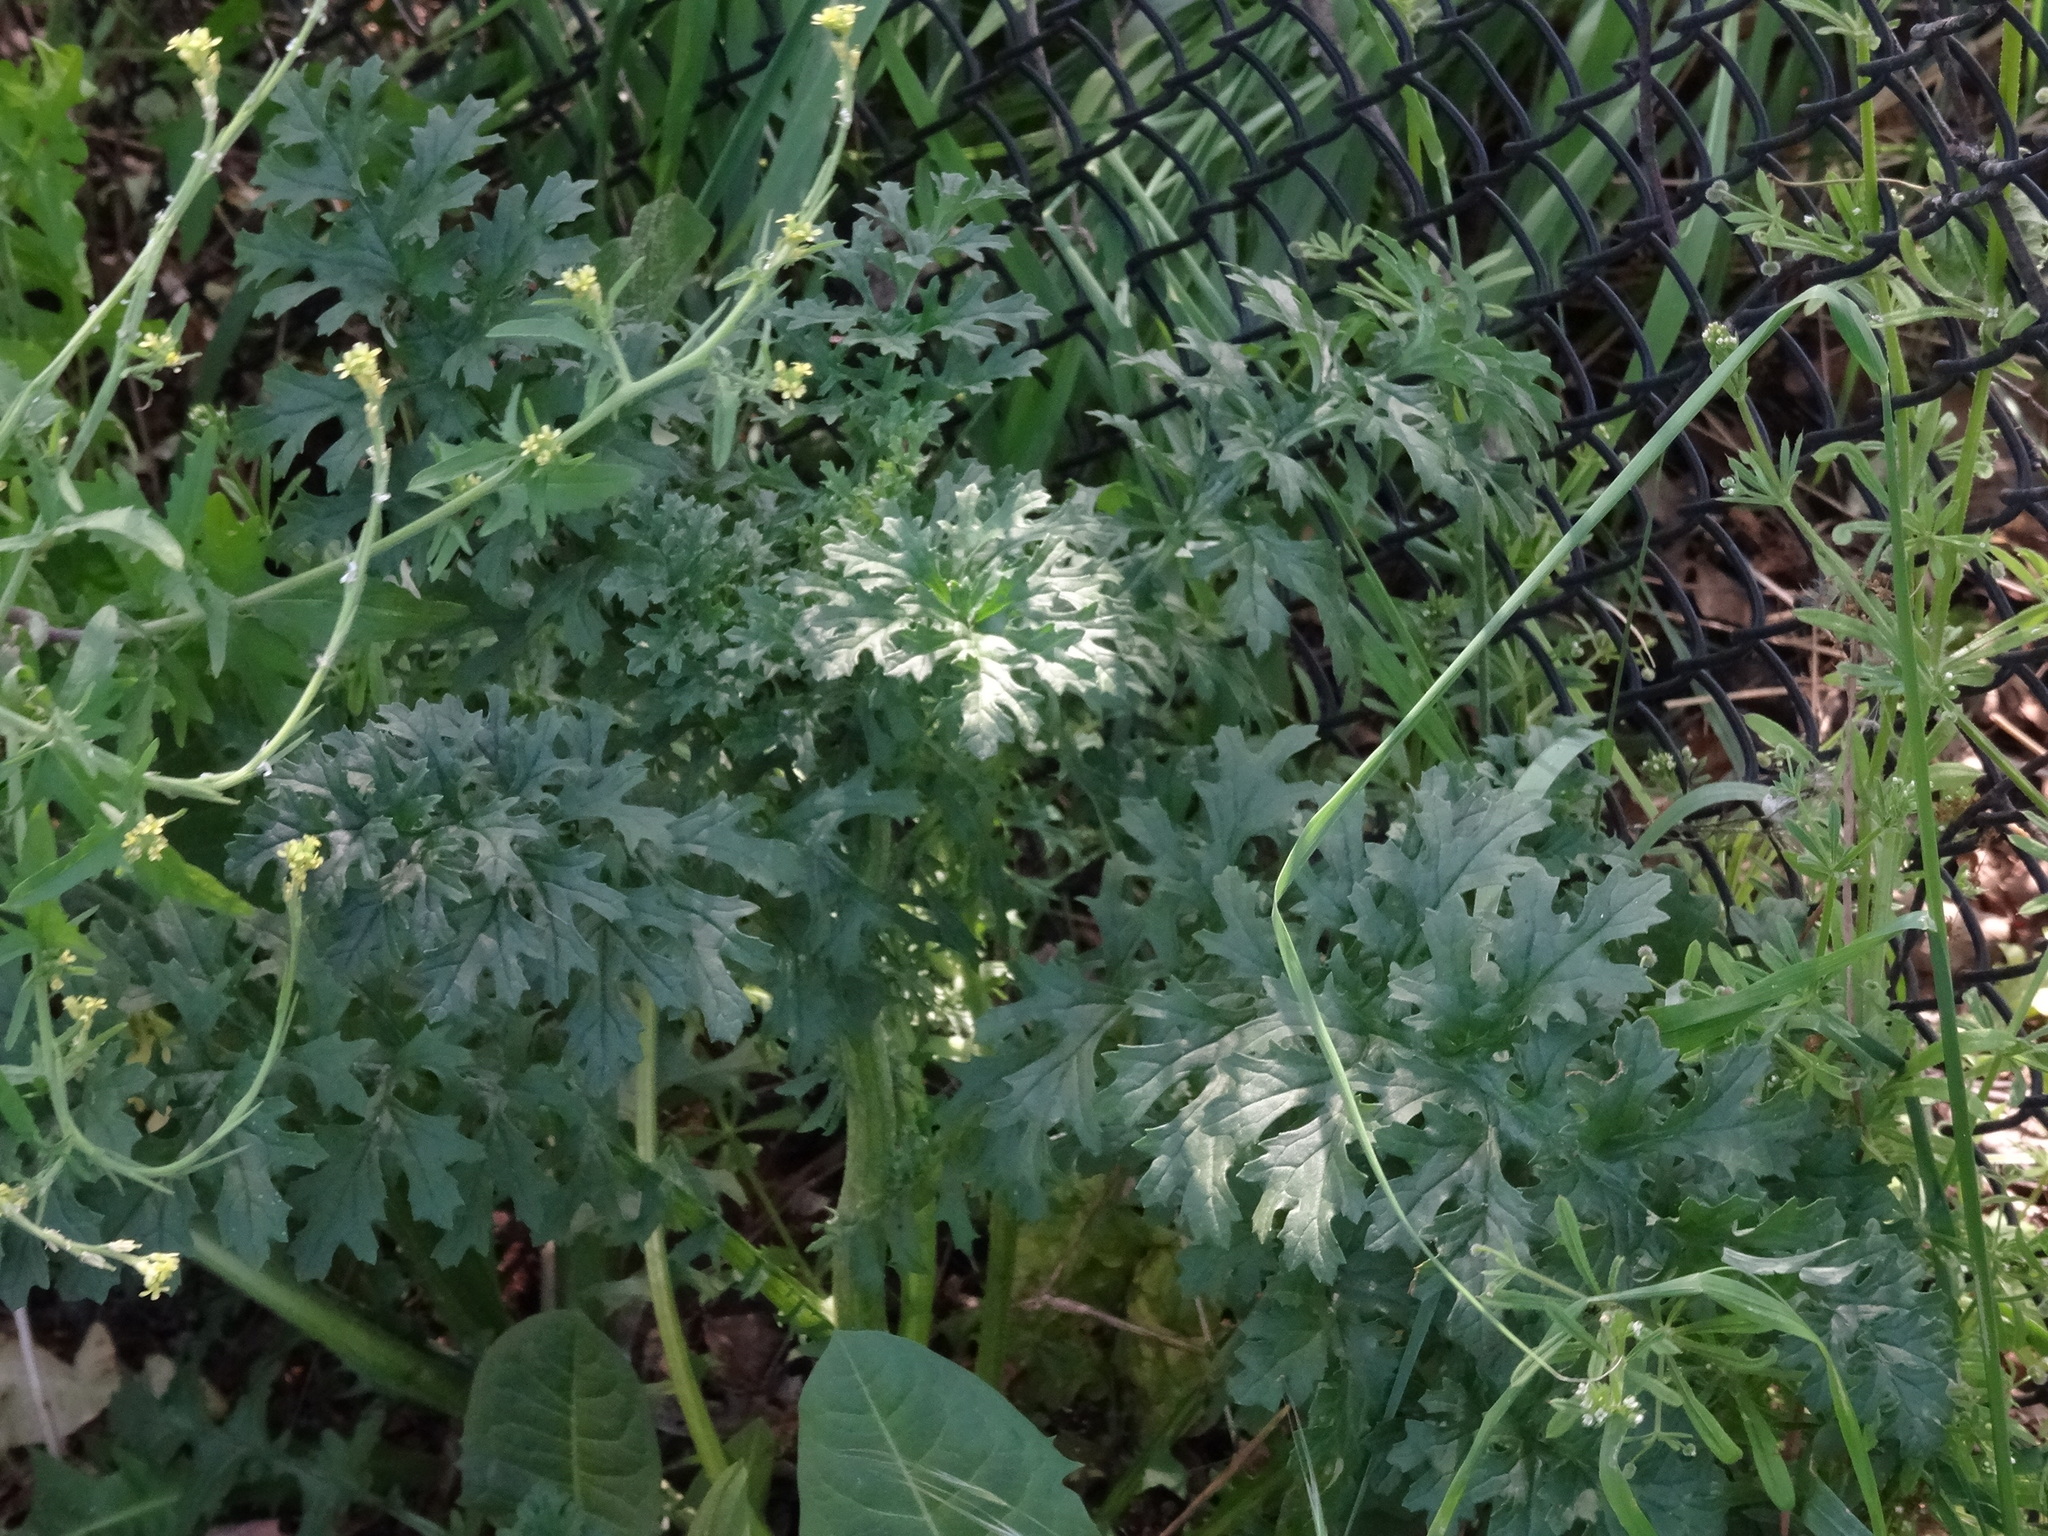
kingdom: Plantae
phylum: Tracheophyta
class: Magnoliopsida
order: Asterales
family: Asteraceae
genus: Jacobaea
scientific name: Jacobaea vulgaris
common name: Stinking willie
